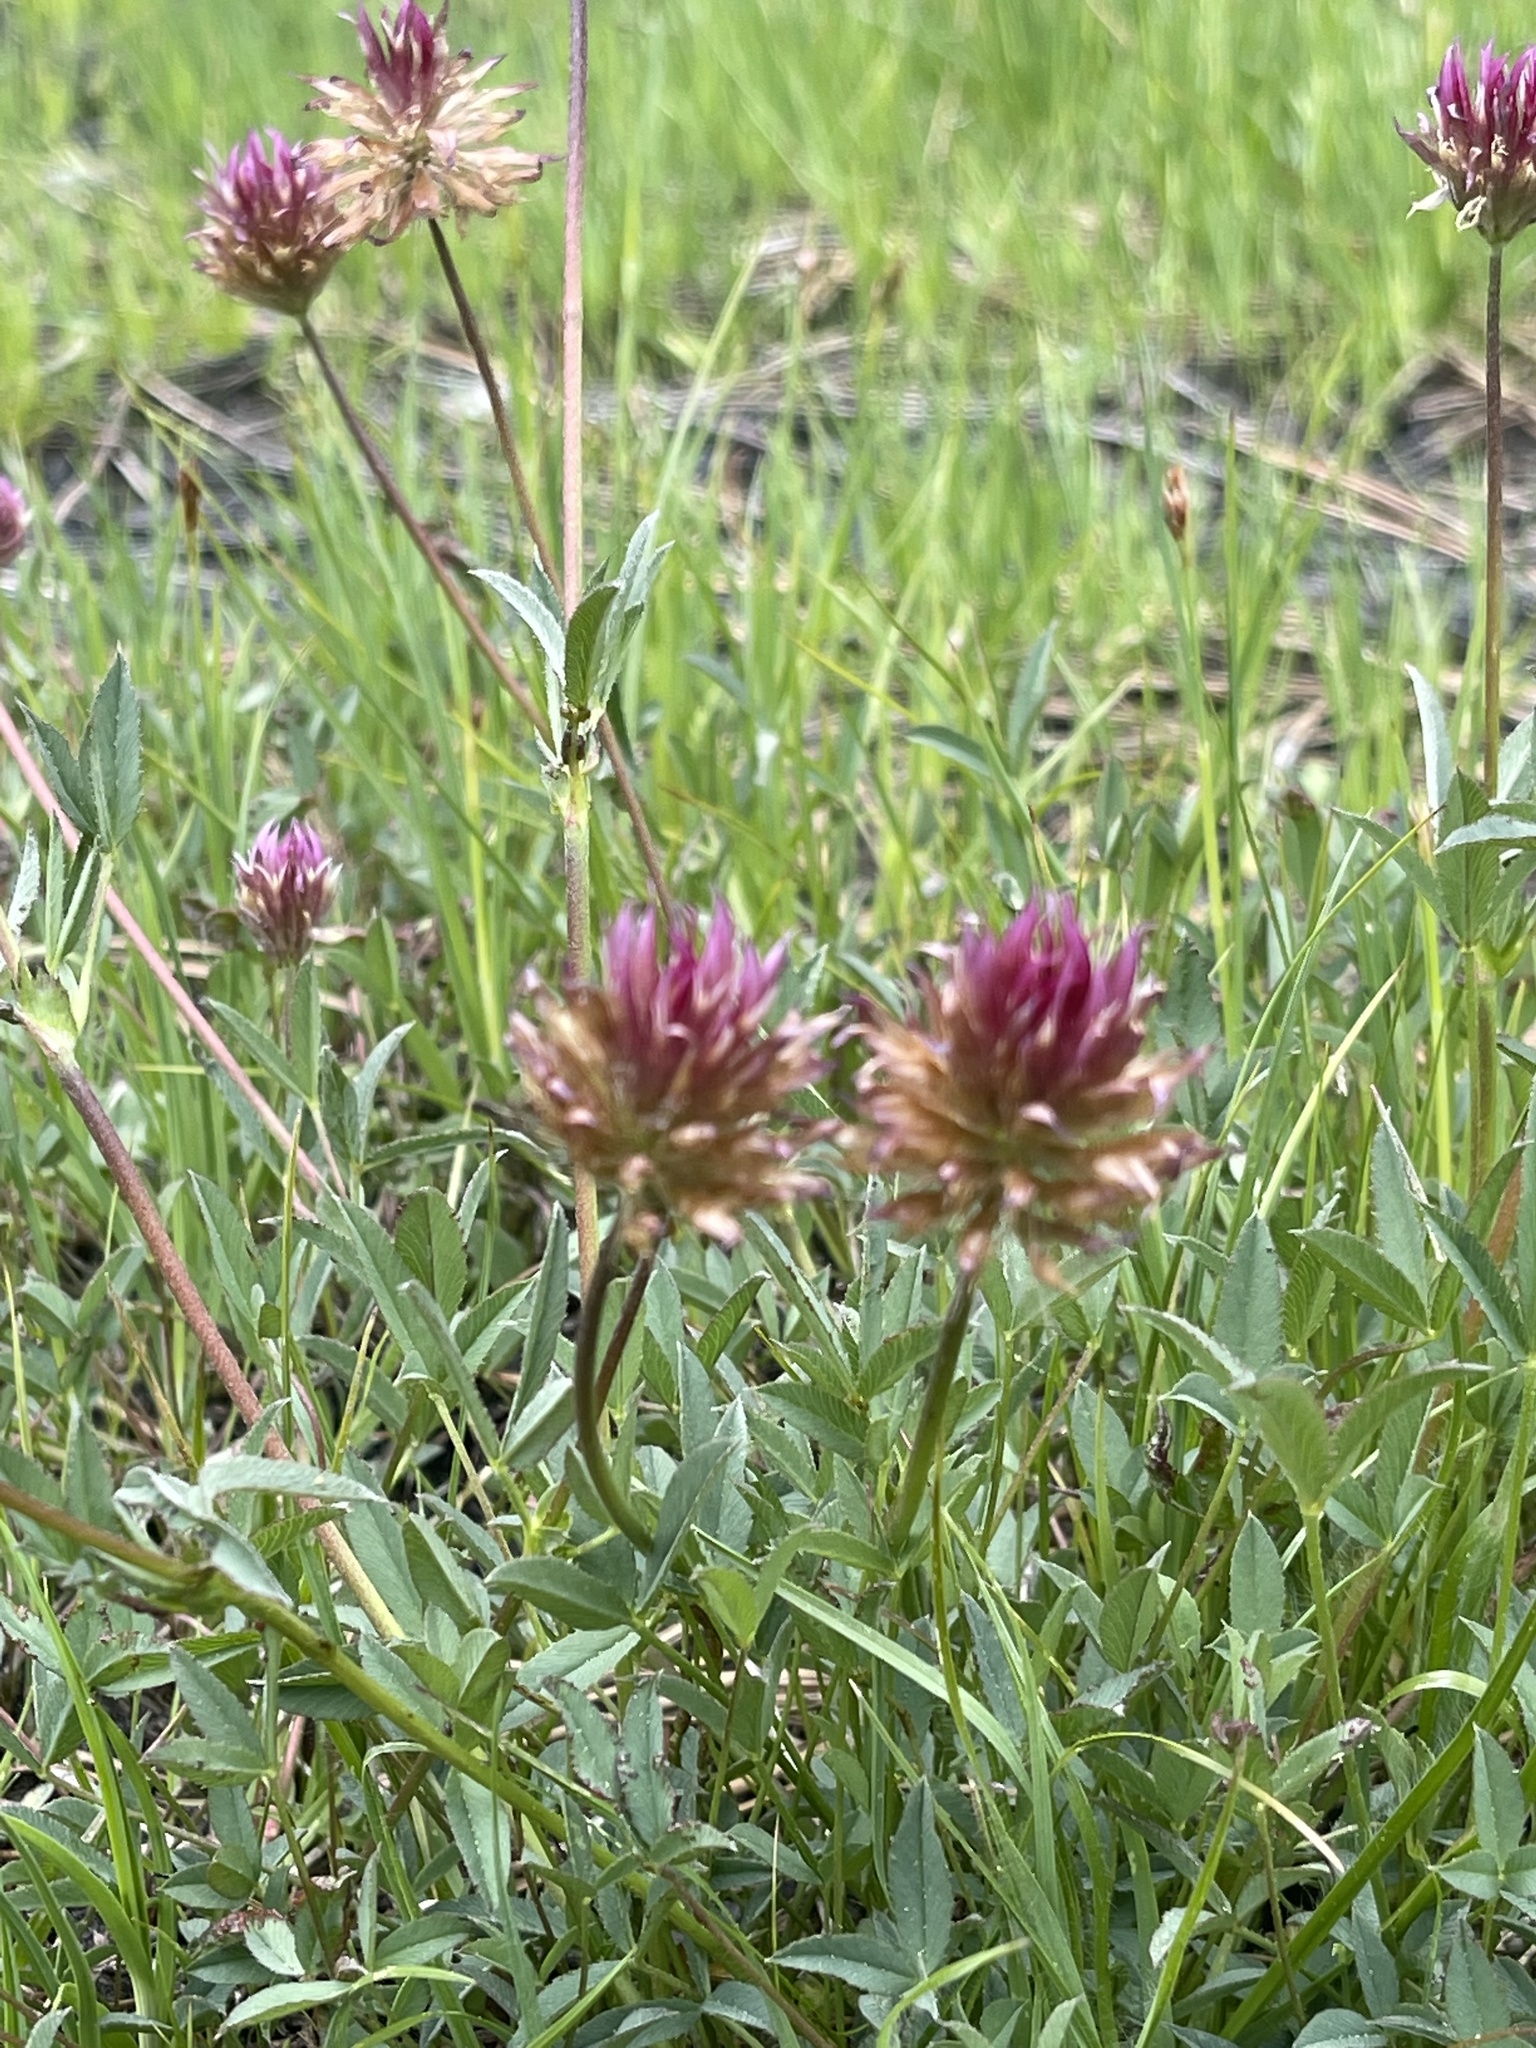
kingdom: Plantae
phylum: Tracheophyta
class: Magnoliopsida
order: Fabales
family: Fabaceae
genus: Trifolium
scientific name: Trifolium longipes
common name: Long-stalk clover
